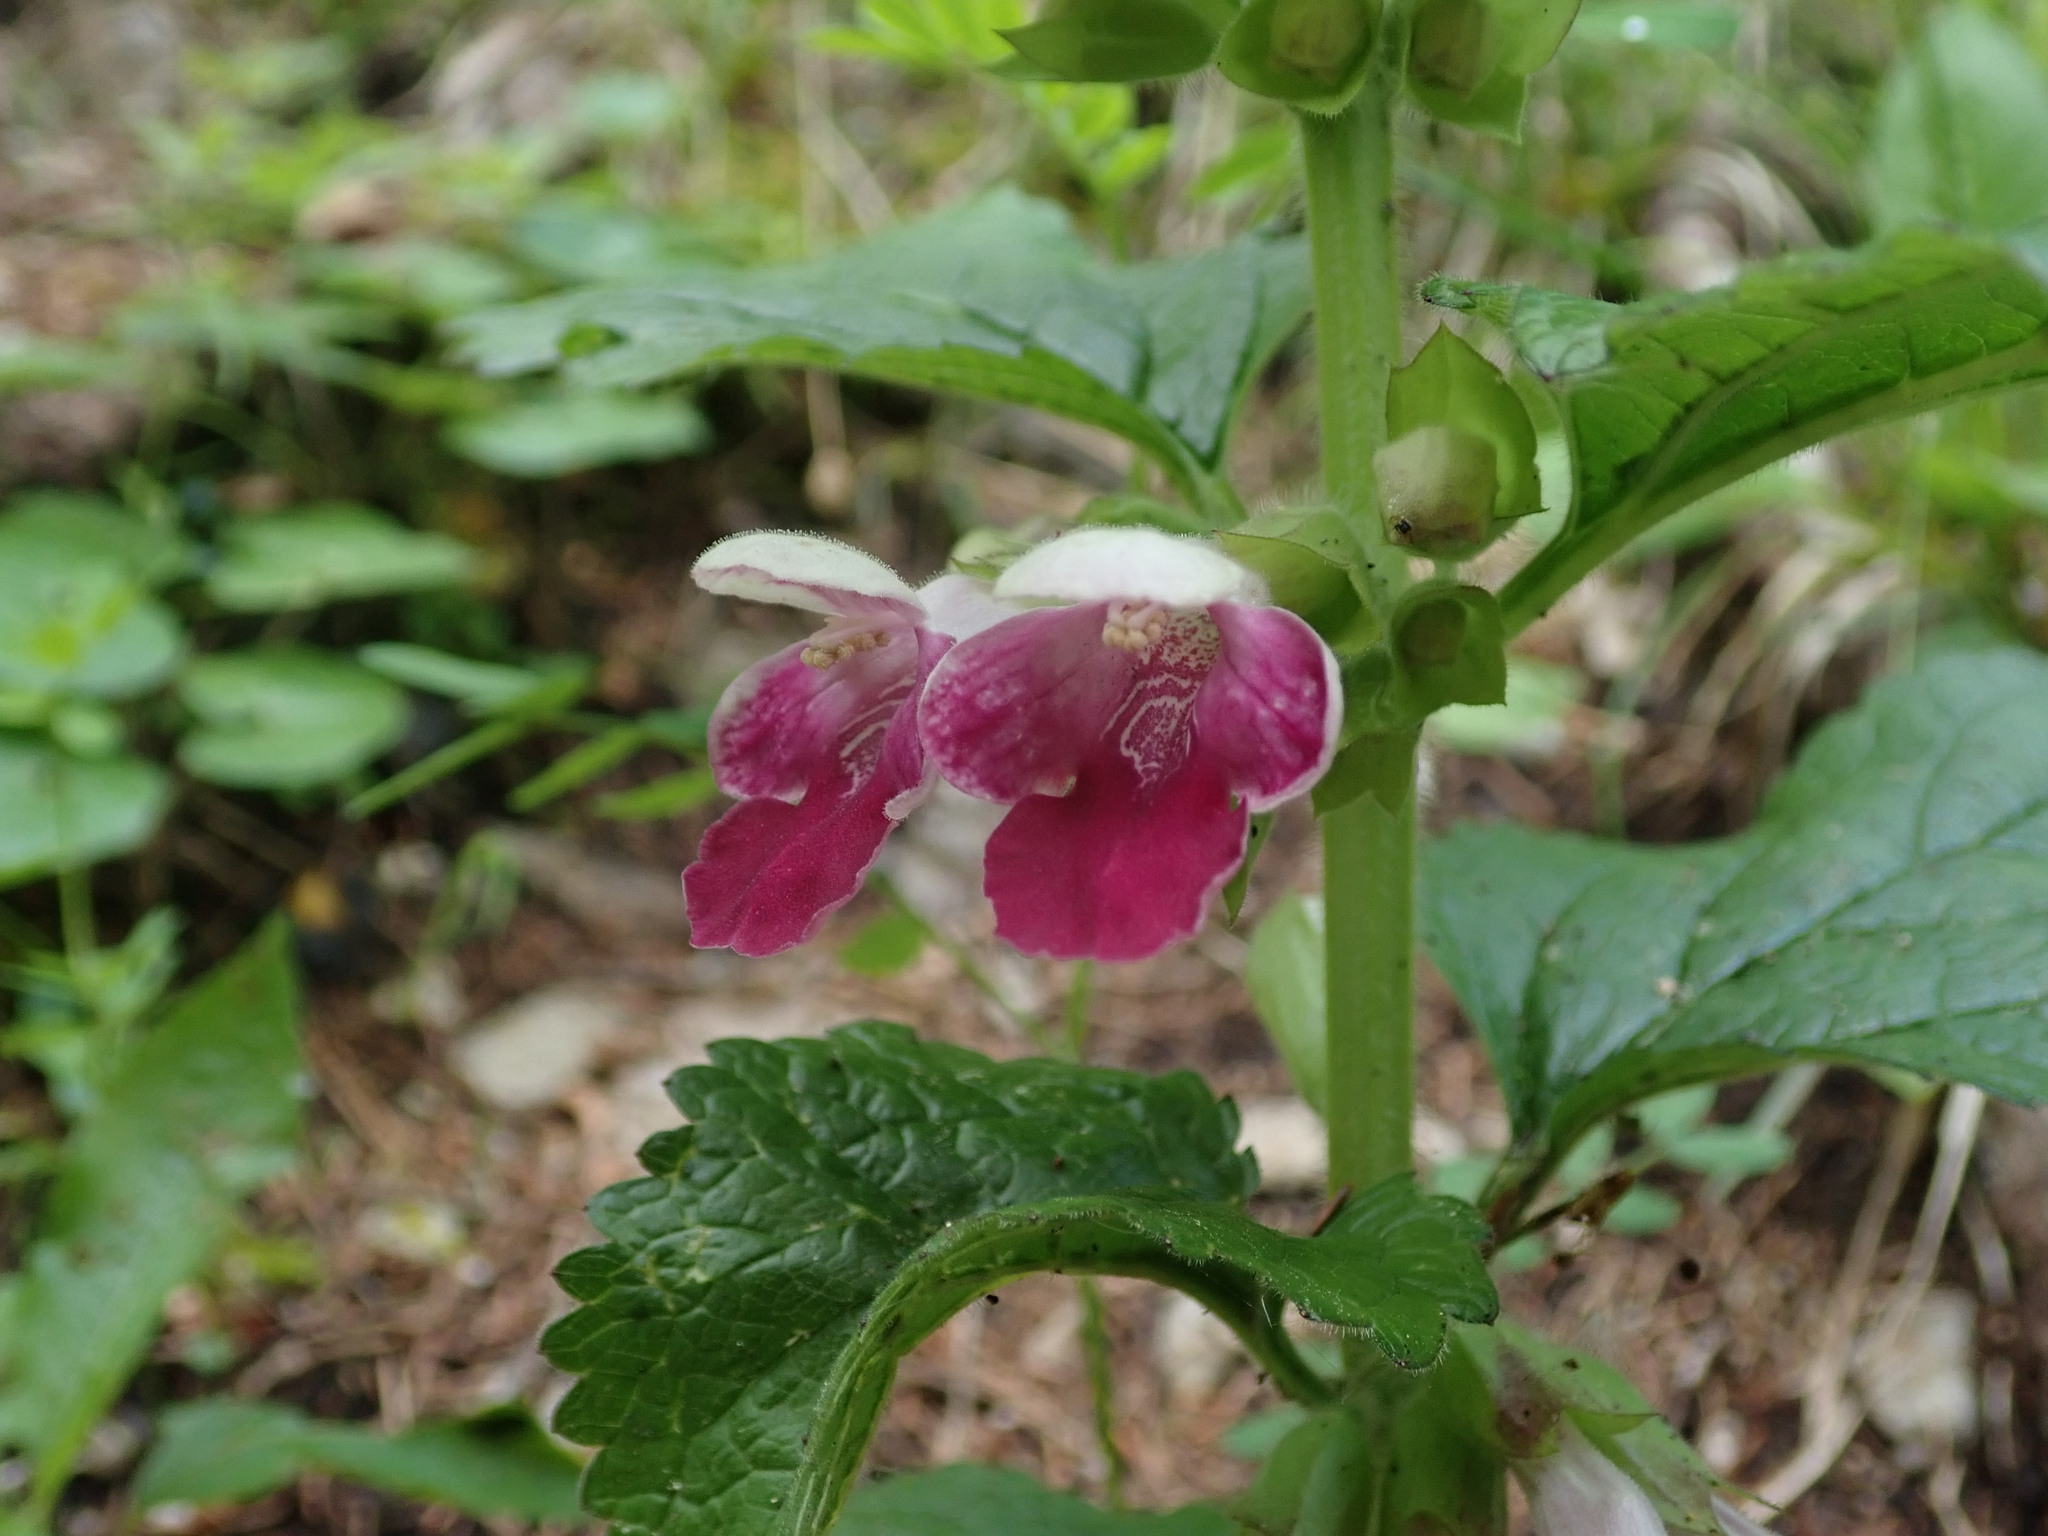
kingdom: Plantae
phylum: Tracheophyta
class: Magnoliopsida
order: Lamiales
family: Lamiaceae
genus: Melittis
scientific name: Melittis melissophyllum
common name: Bastard balm
